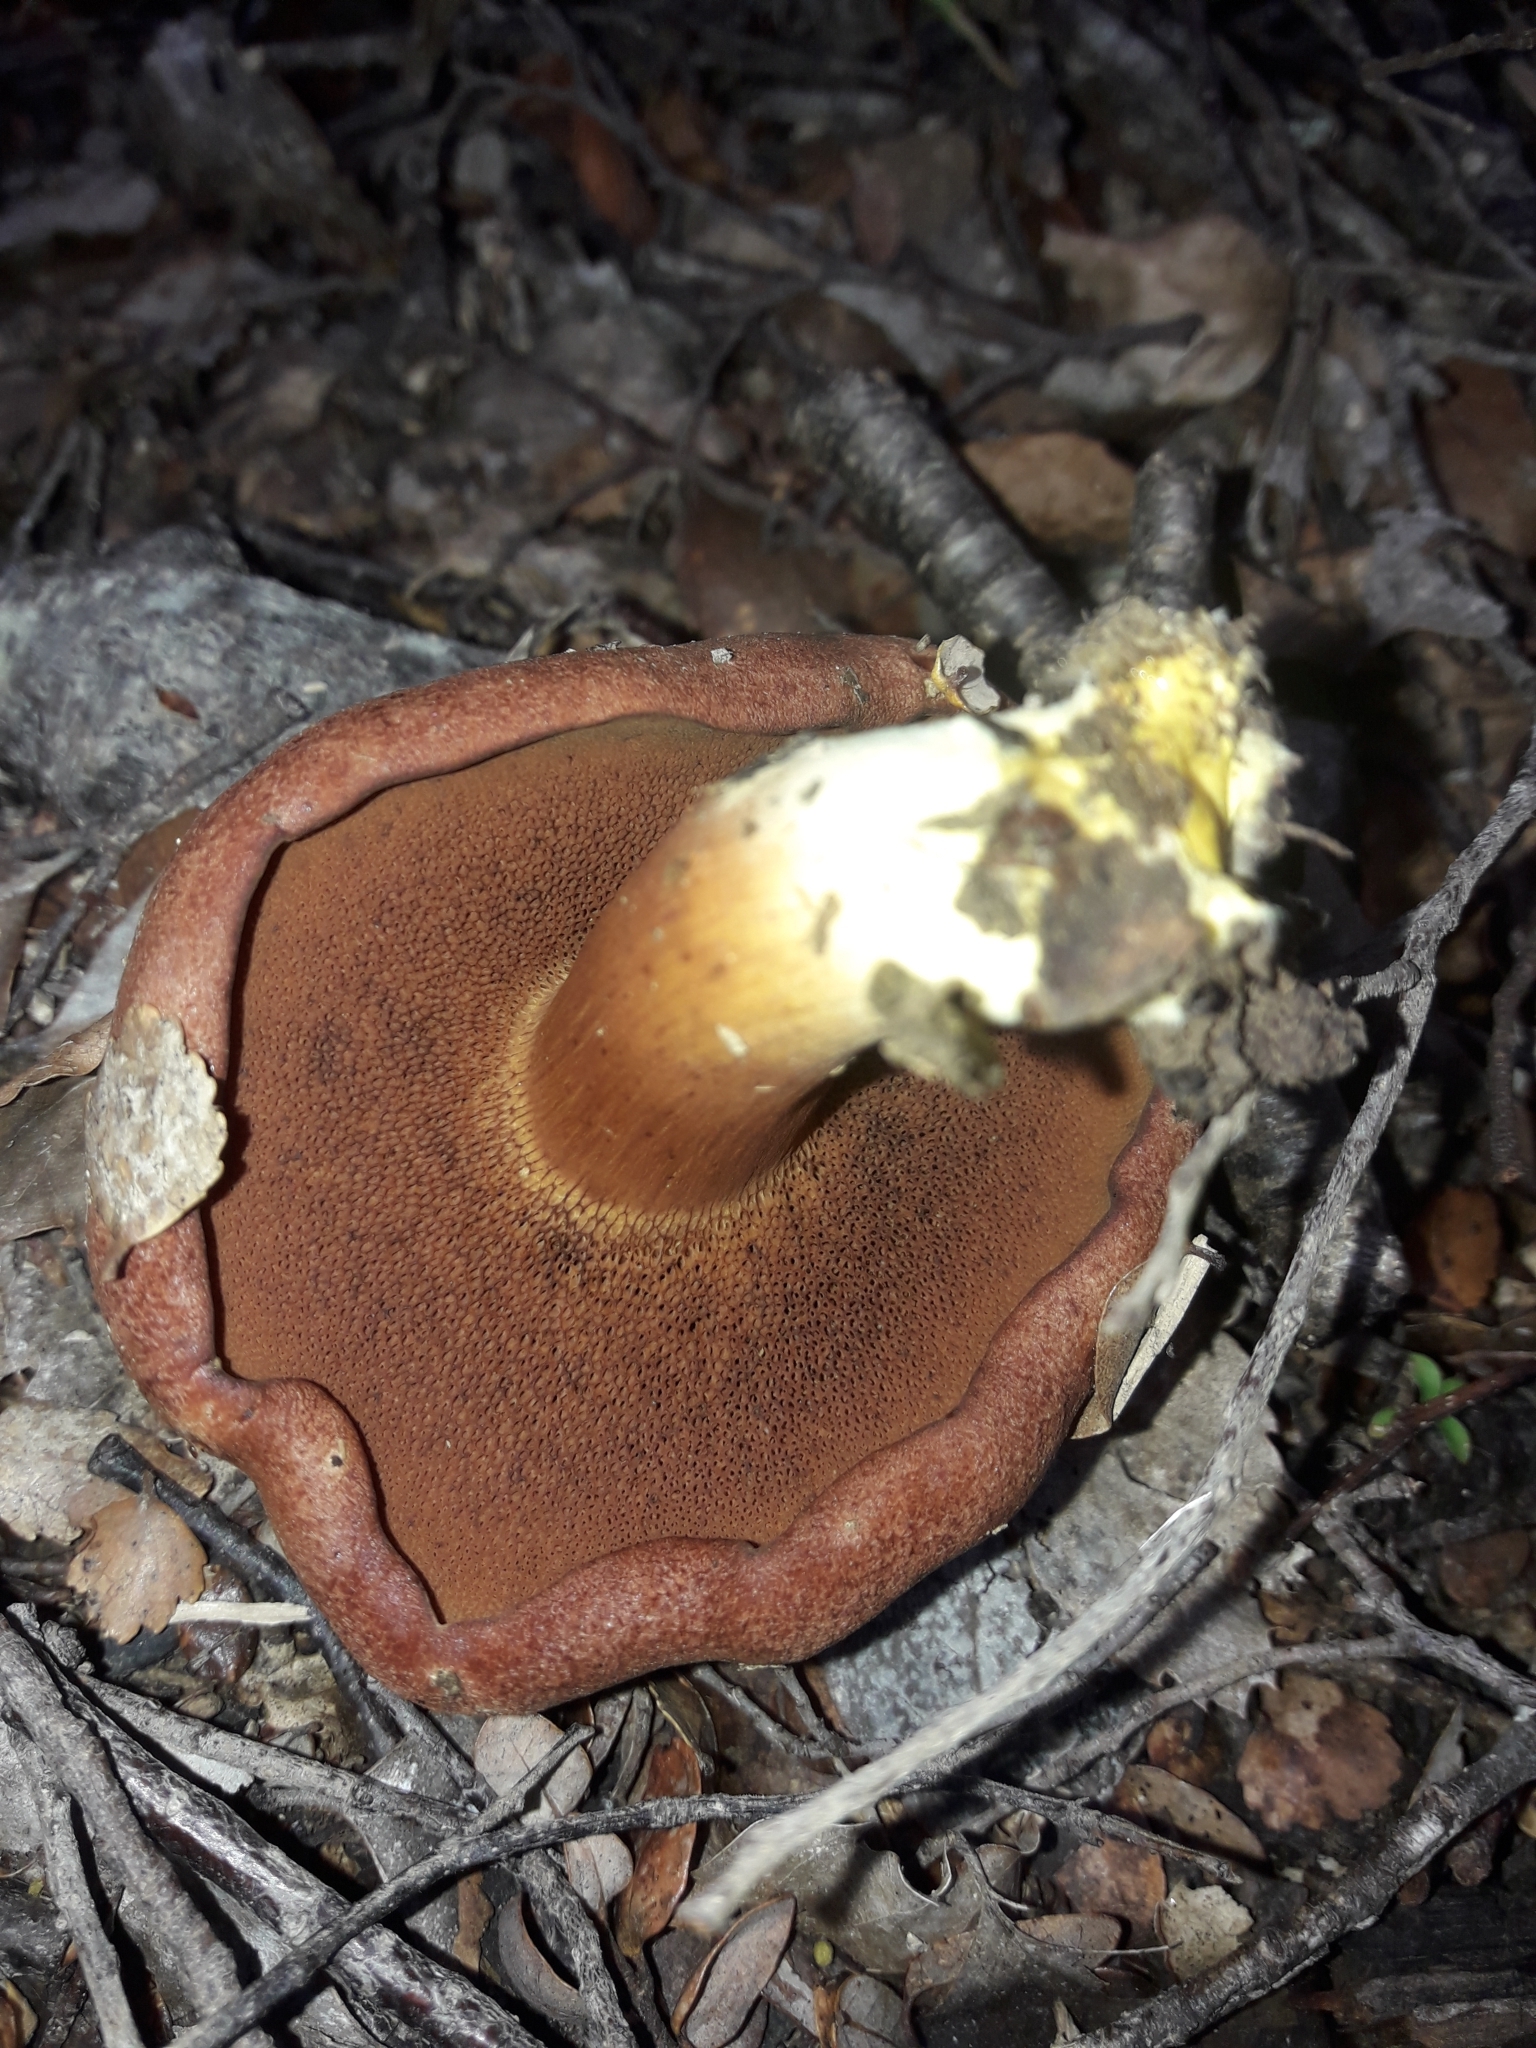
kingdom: Fungi
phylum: Basidiomycota
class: Agaricomycetes
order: Boletales
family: Boletaceae
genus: Chalciporus
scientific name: Chalciporus piperatus
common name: Peppery bolete
